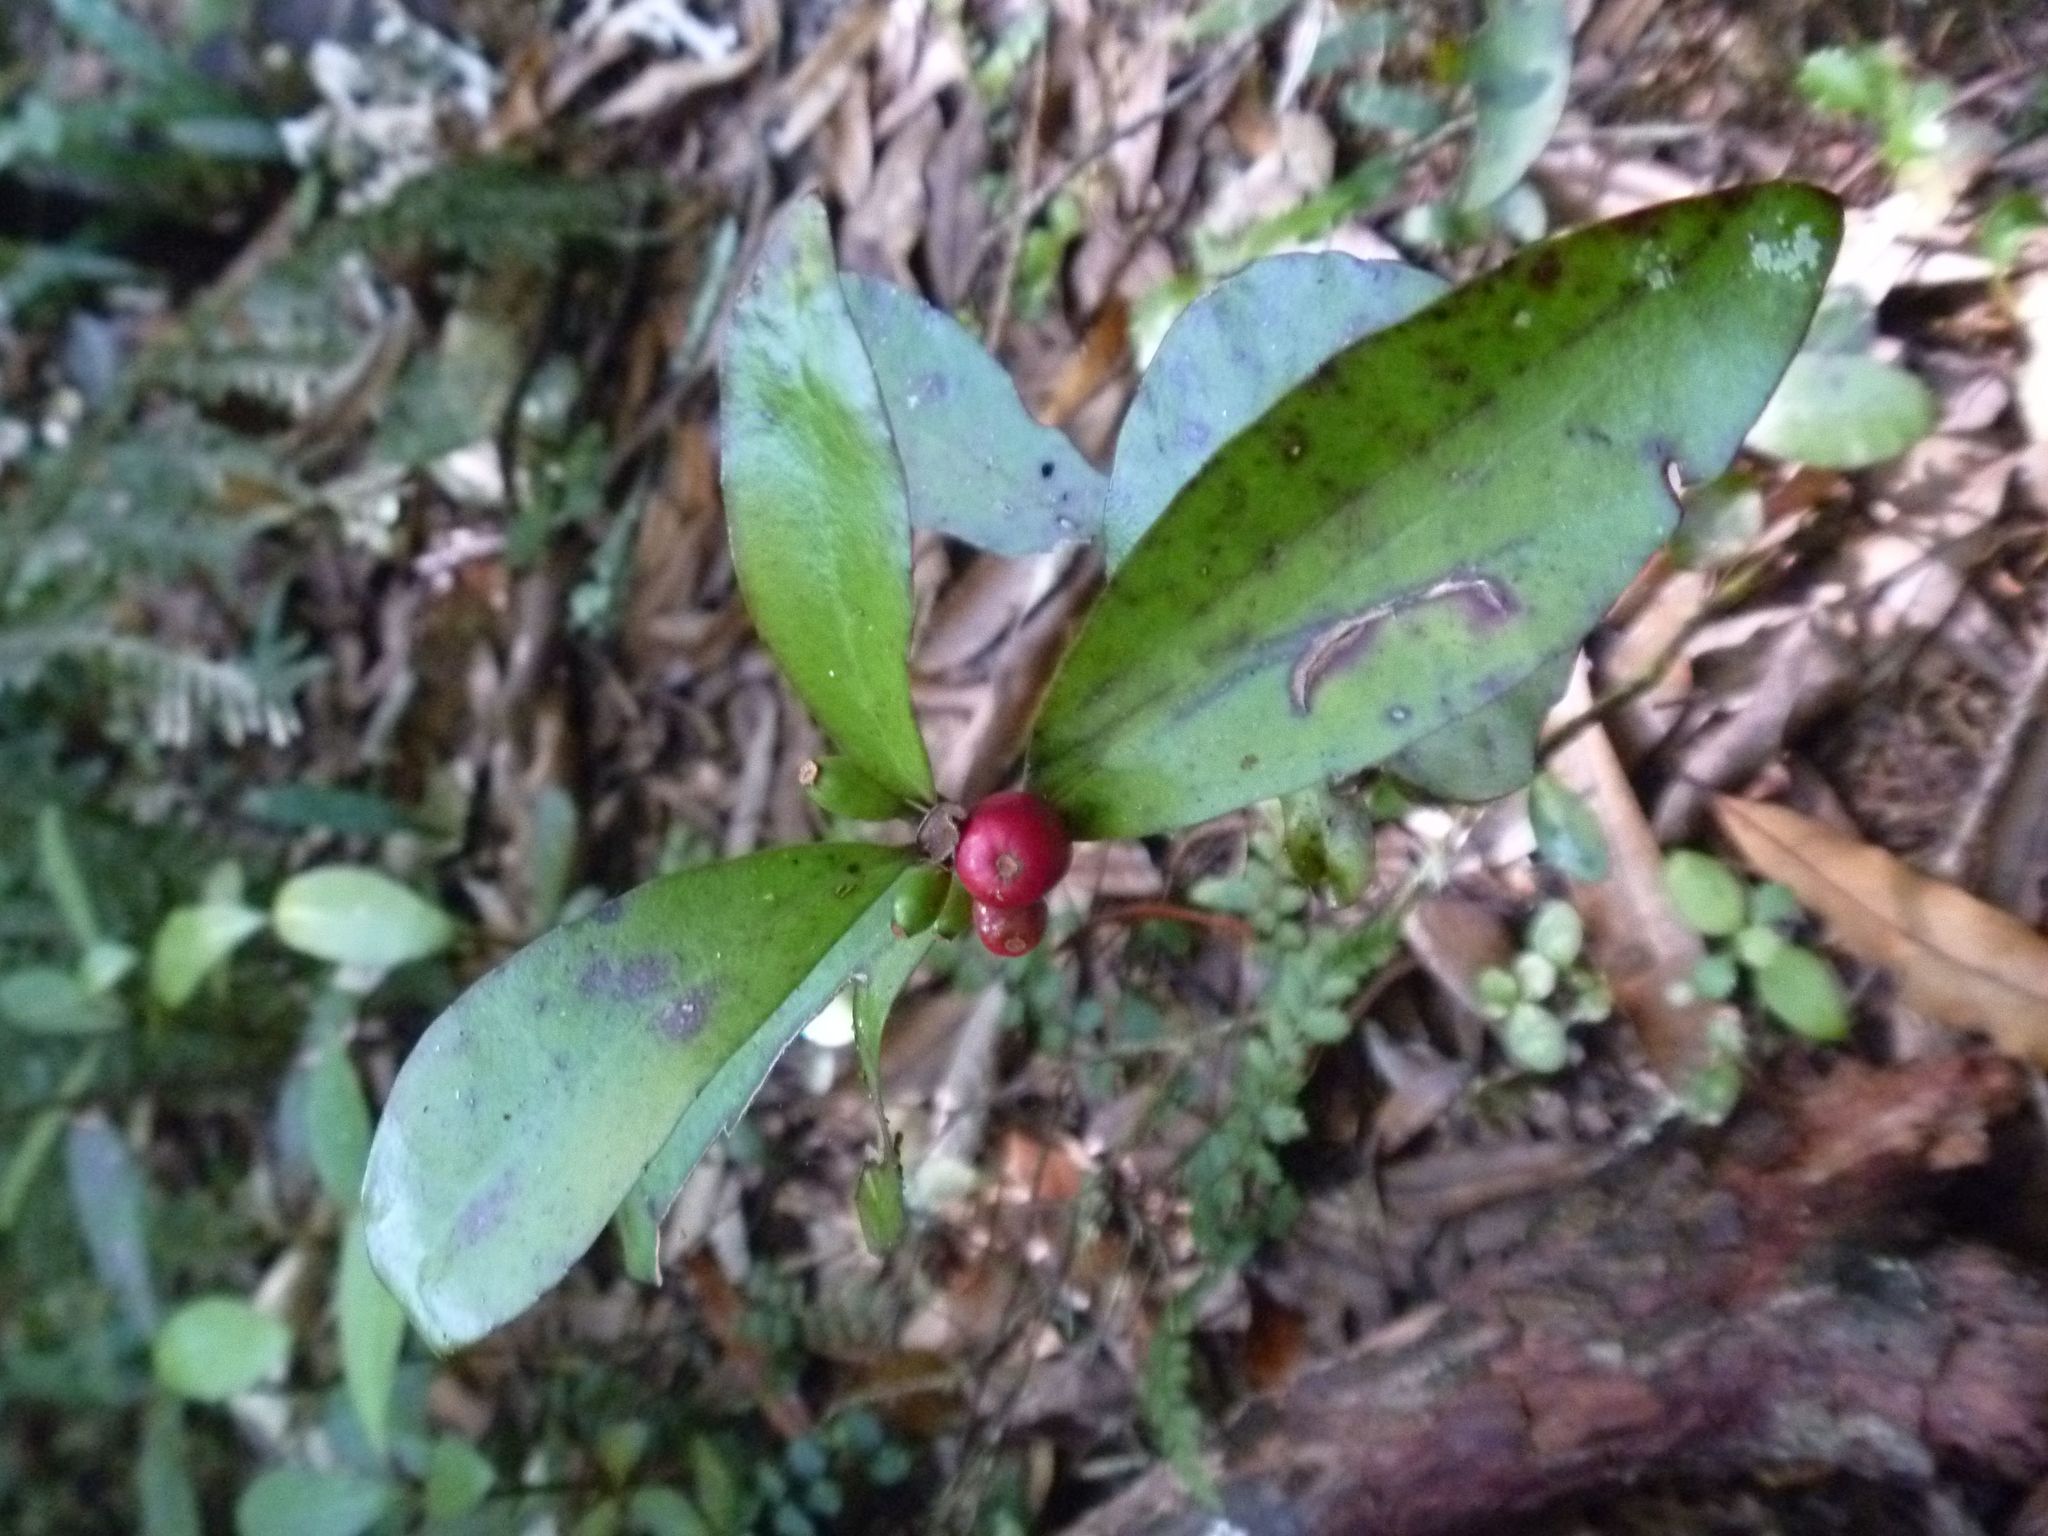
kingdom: Plantae
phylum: Tracheophyta
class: Magnoliopsida
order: Asterales
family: Alseuosmiaceae
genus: Alseuosmia
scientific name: Alseuosmia pusilla
